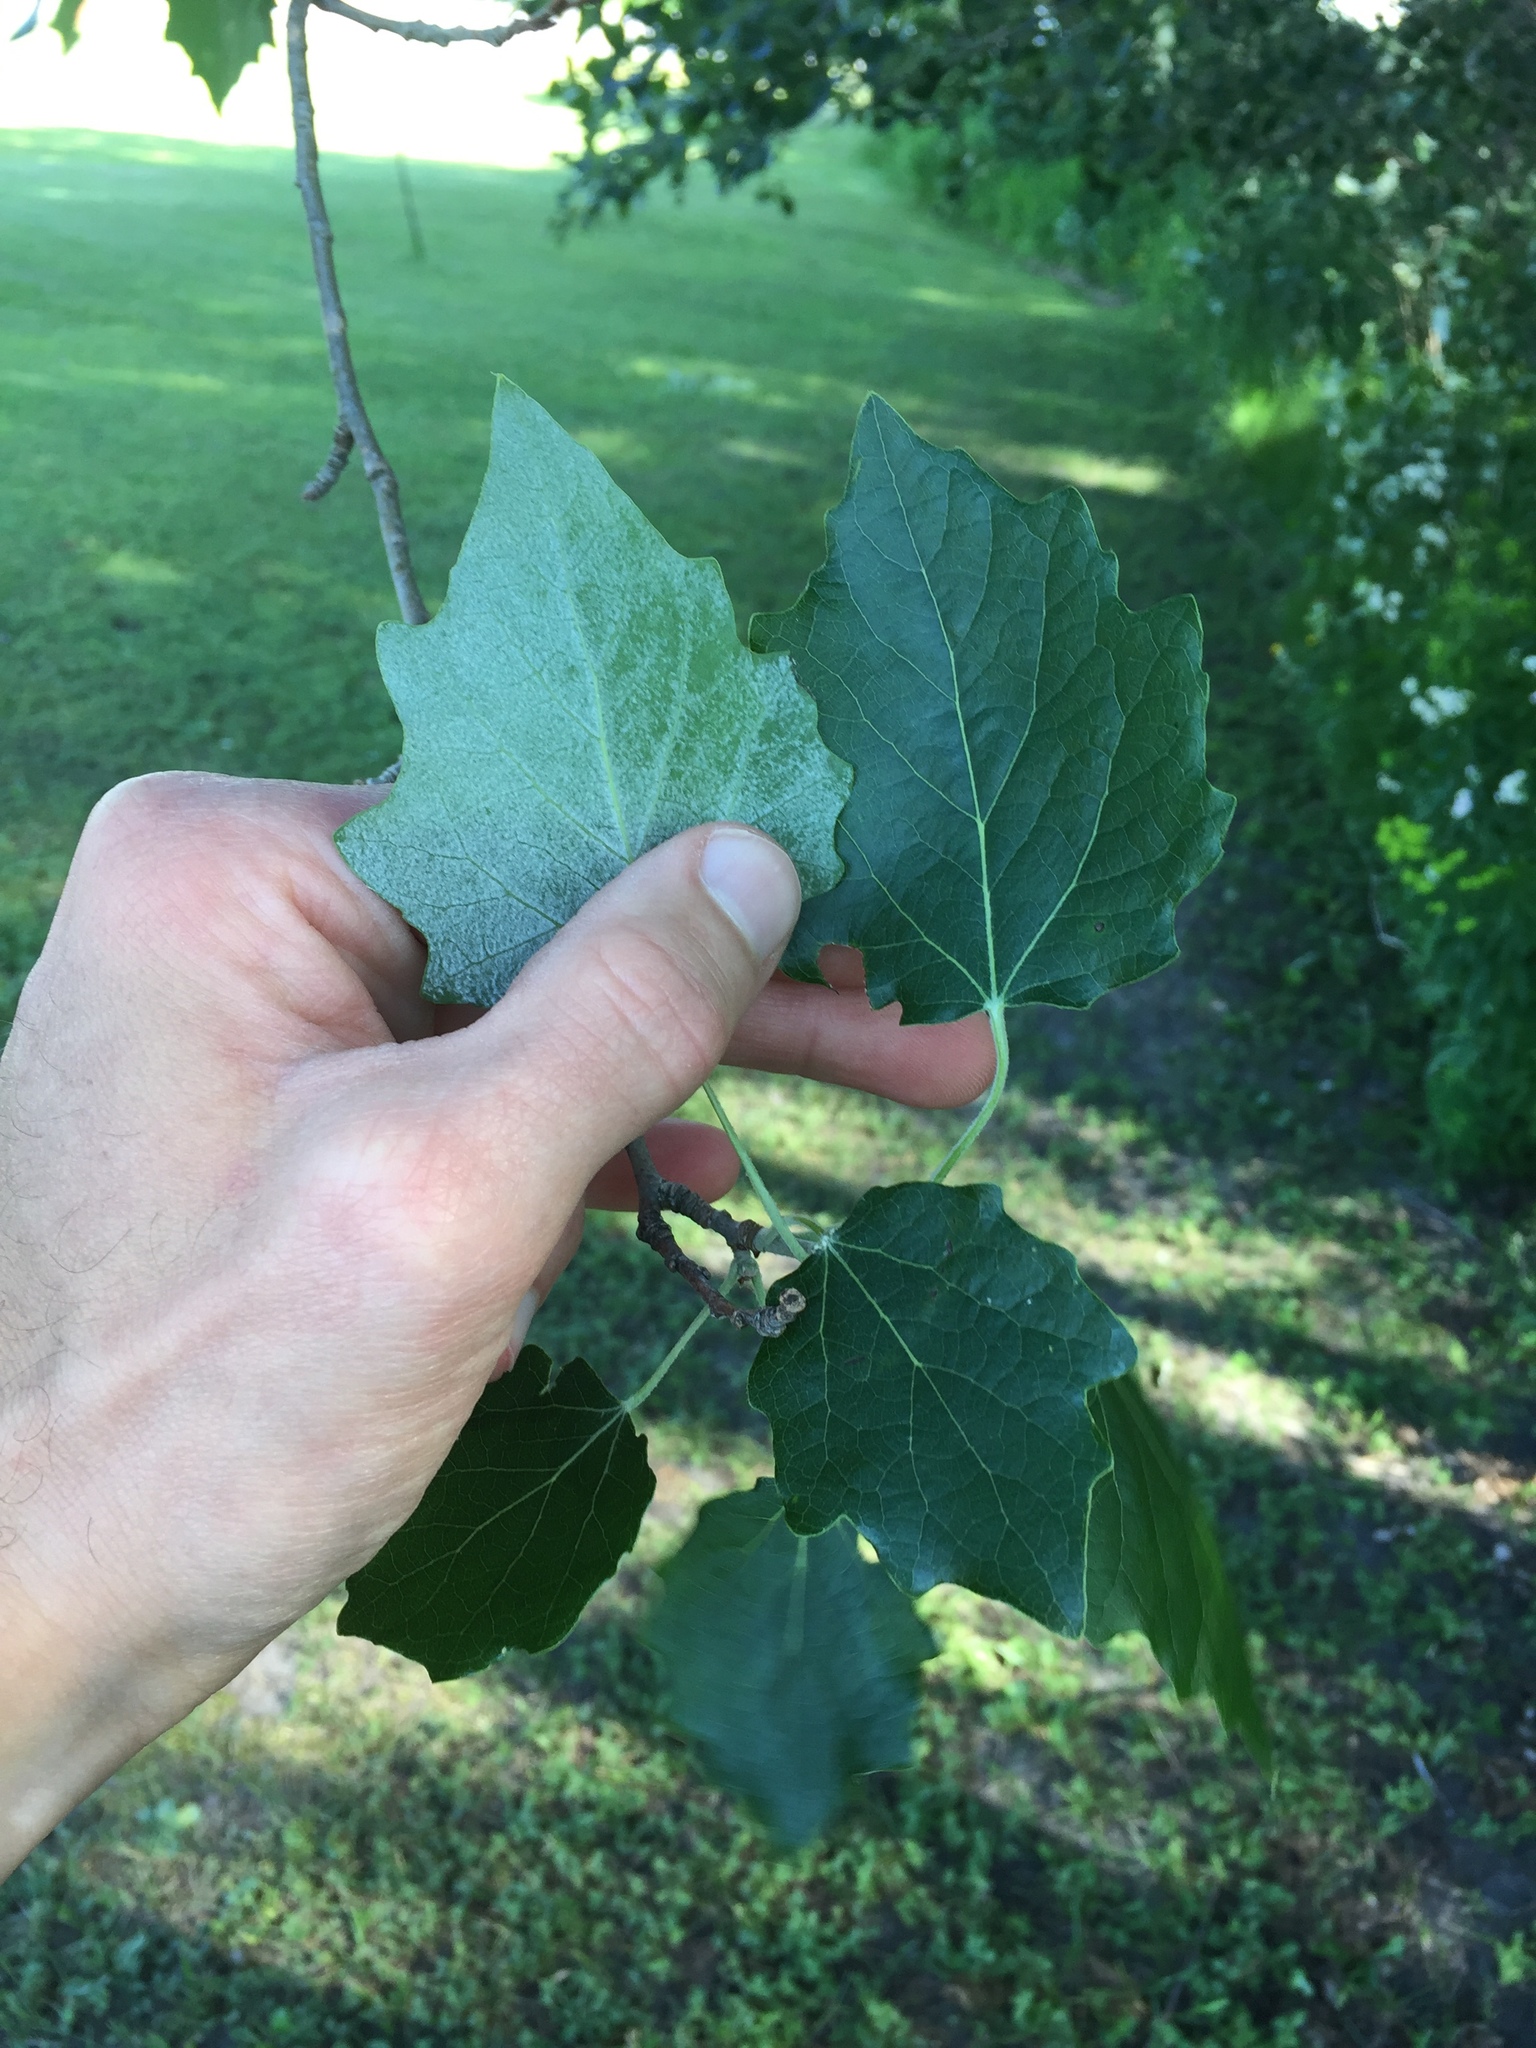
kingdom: Plantae
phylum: Tracheophyta
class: Magnoliopsida
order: Malpighiales
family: Salicaceae
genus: Populus
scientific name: Populus alba
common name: White poplar
